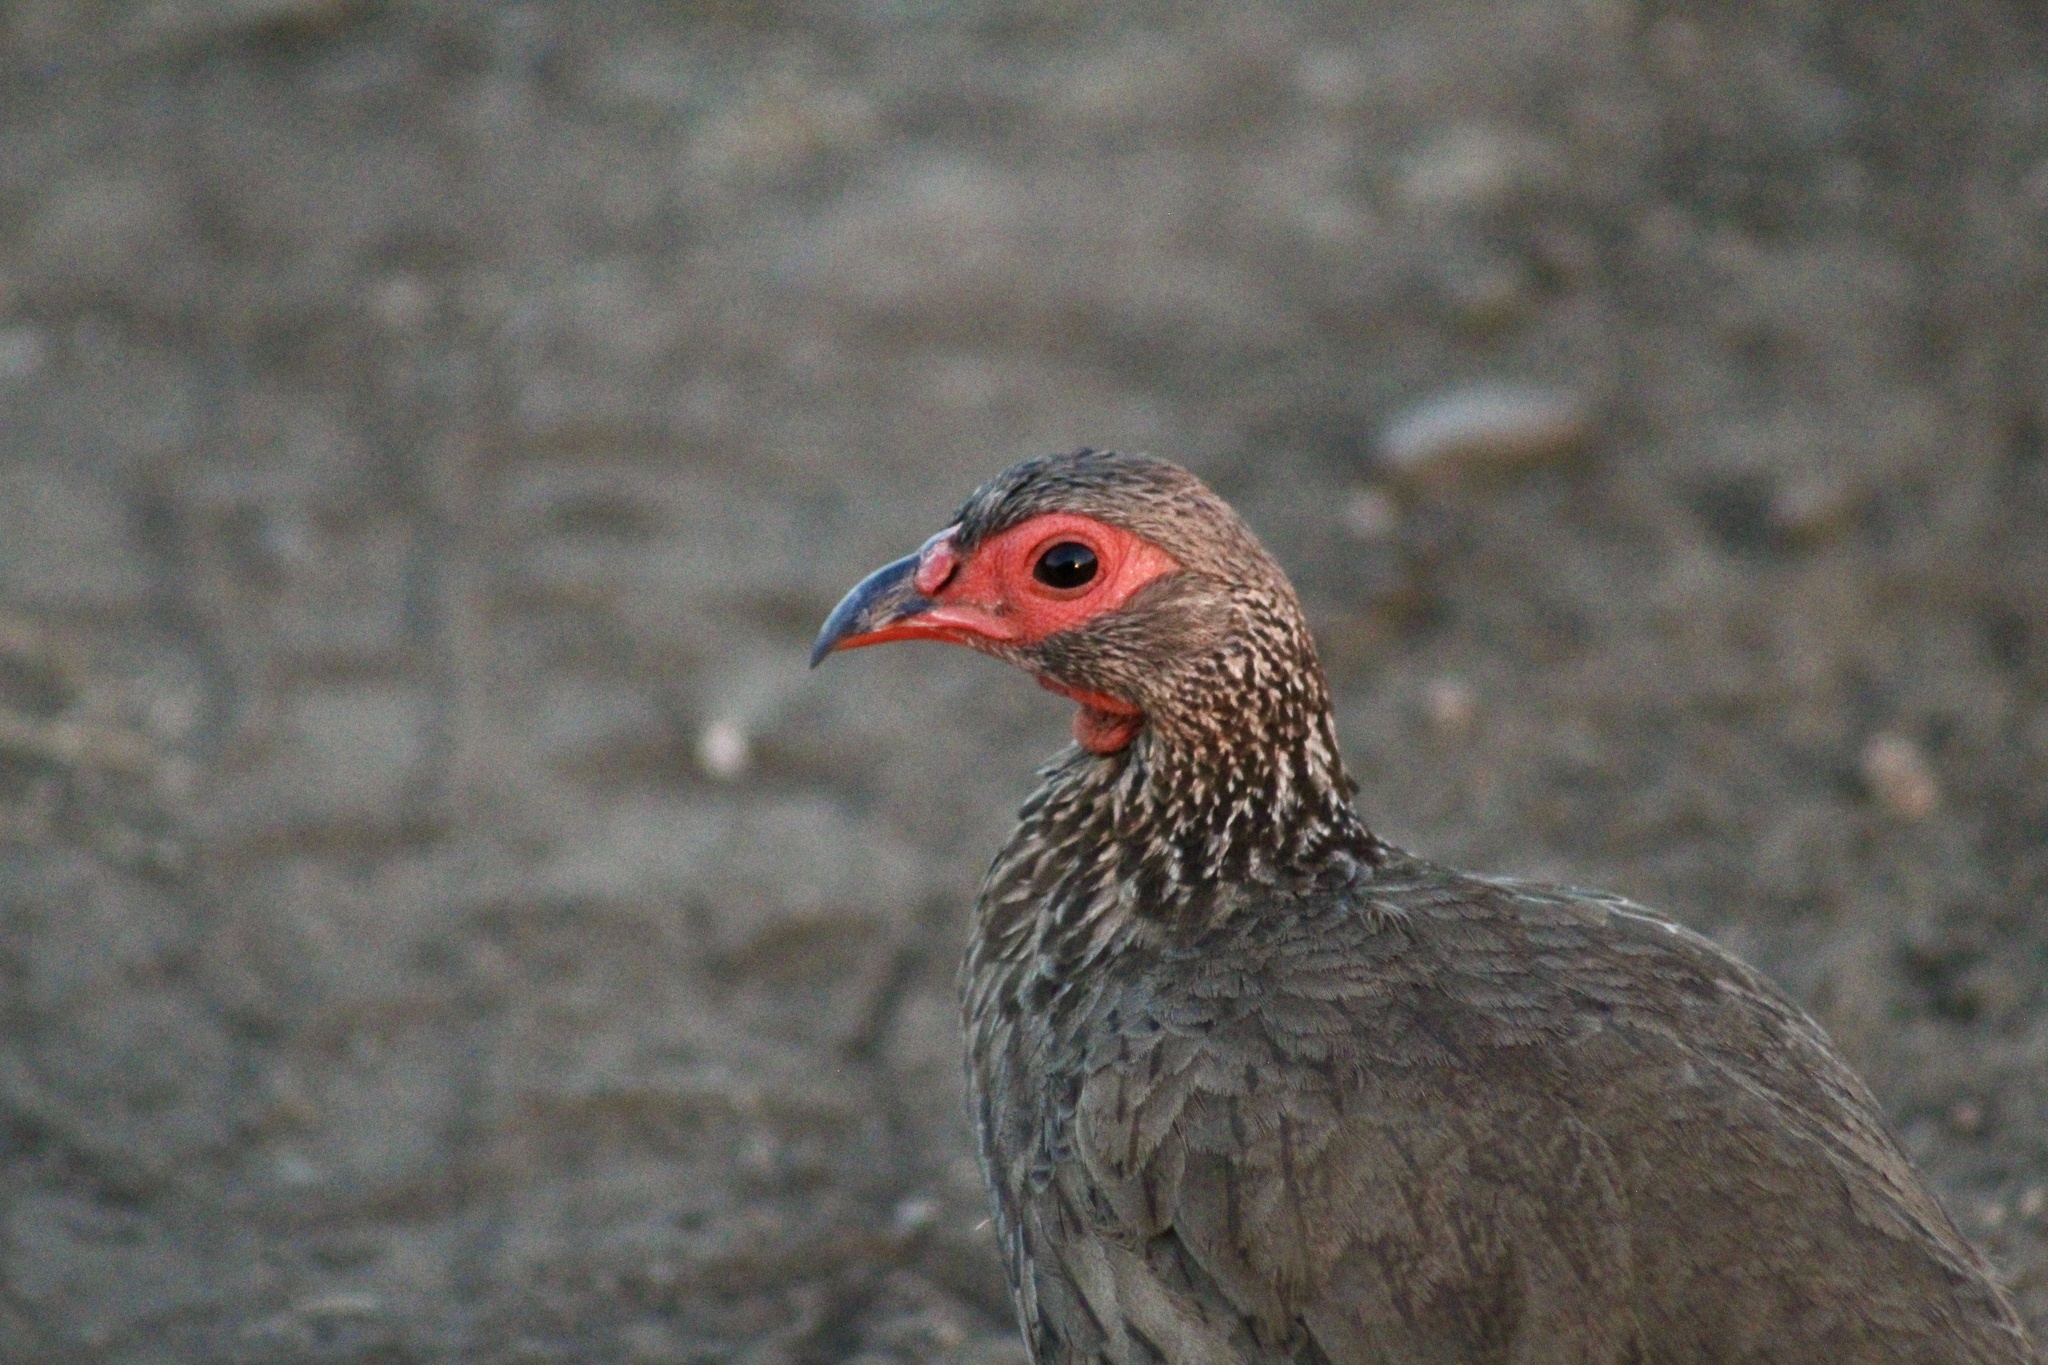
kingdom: Animalia
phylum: Chordata
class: Aves
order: Galliformes
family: Phasianidae
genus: Pternistis
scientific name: Pternistis swainsonii
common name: Swainson's spurfowl
